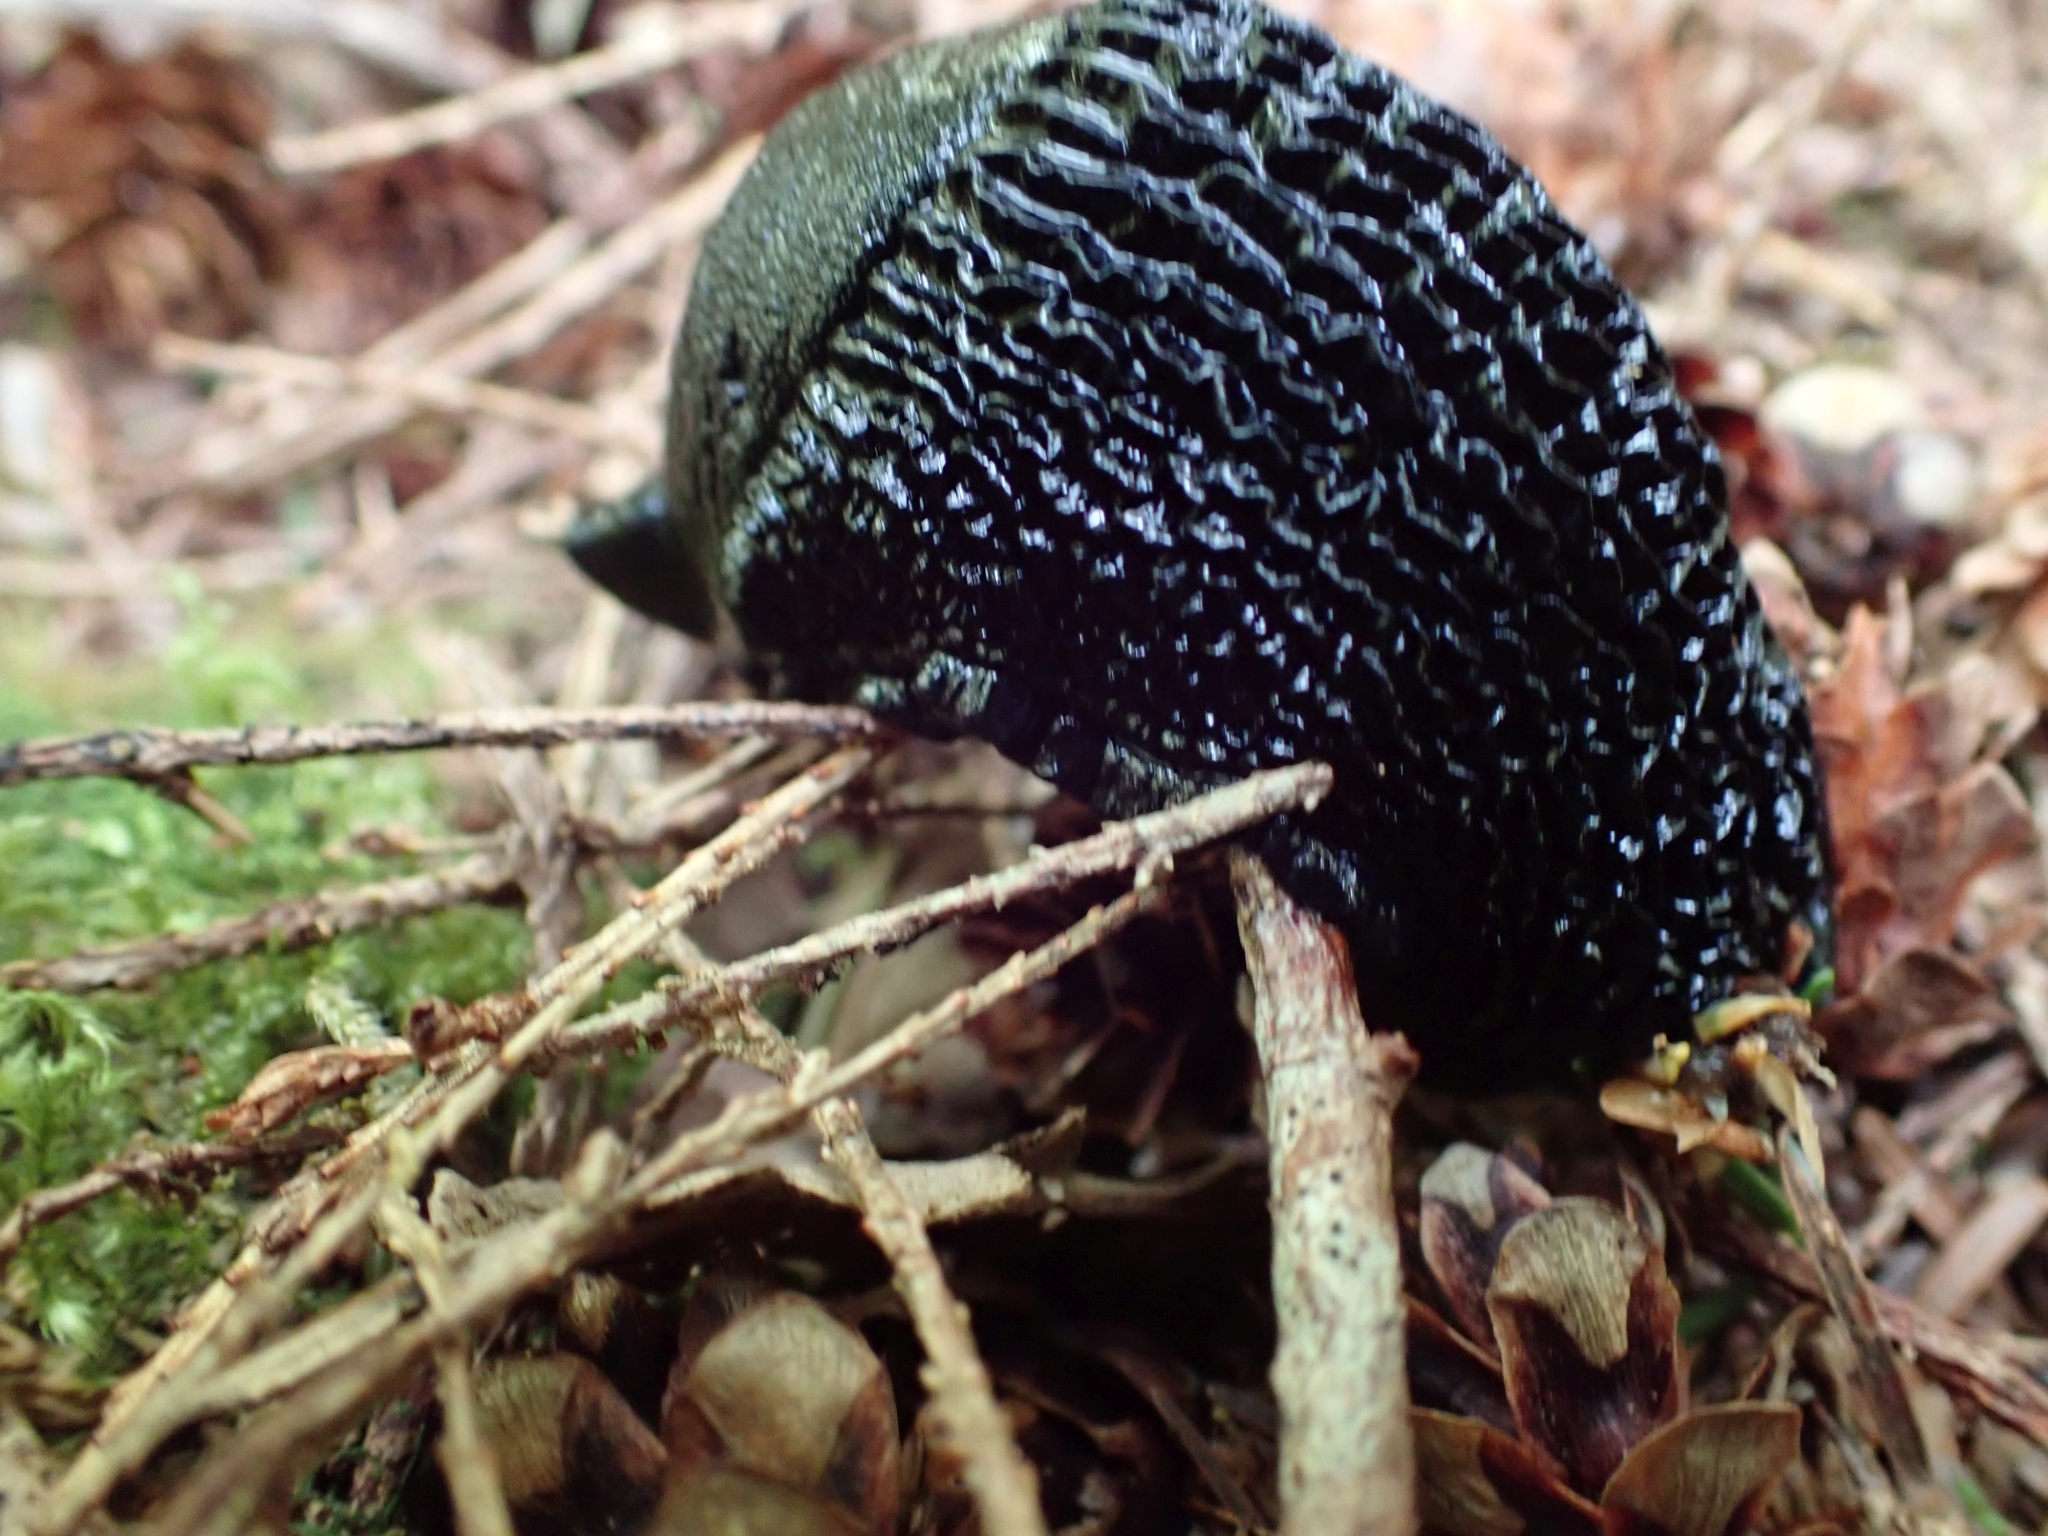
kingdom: Animalia
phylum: Mollusca
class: Gastropoda
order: Stylommatophora
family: Arionidae
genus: Arion
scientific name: Arion
